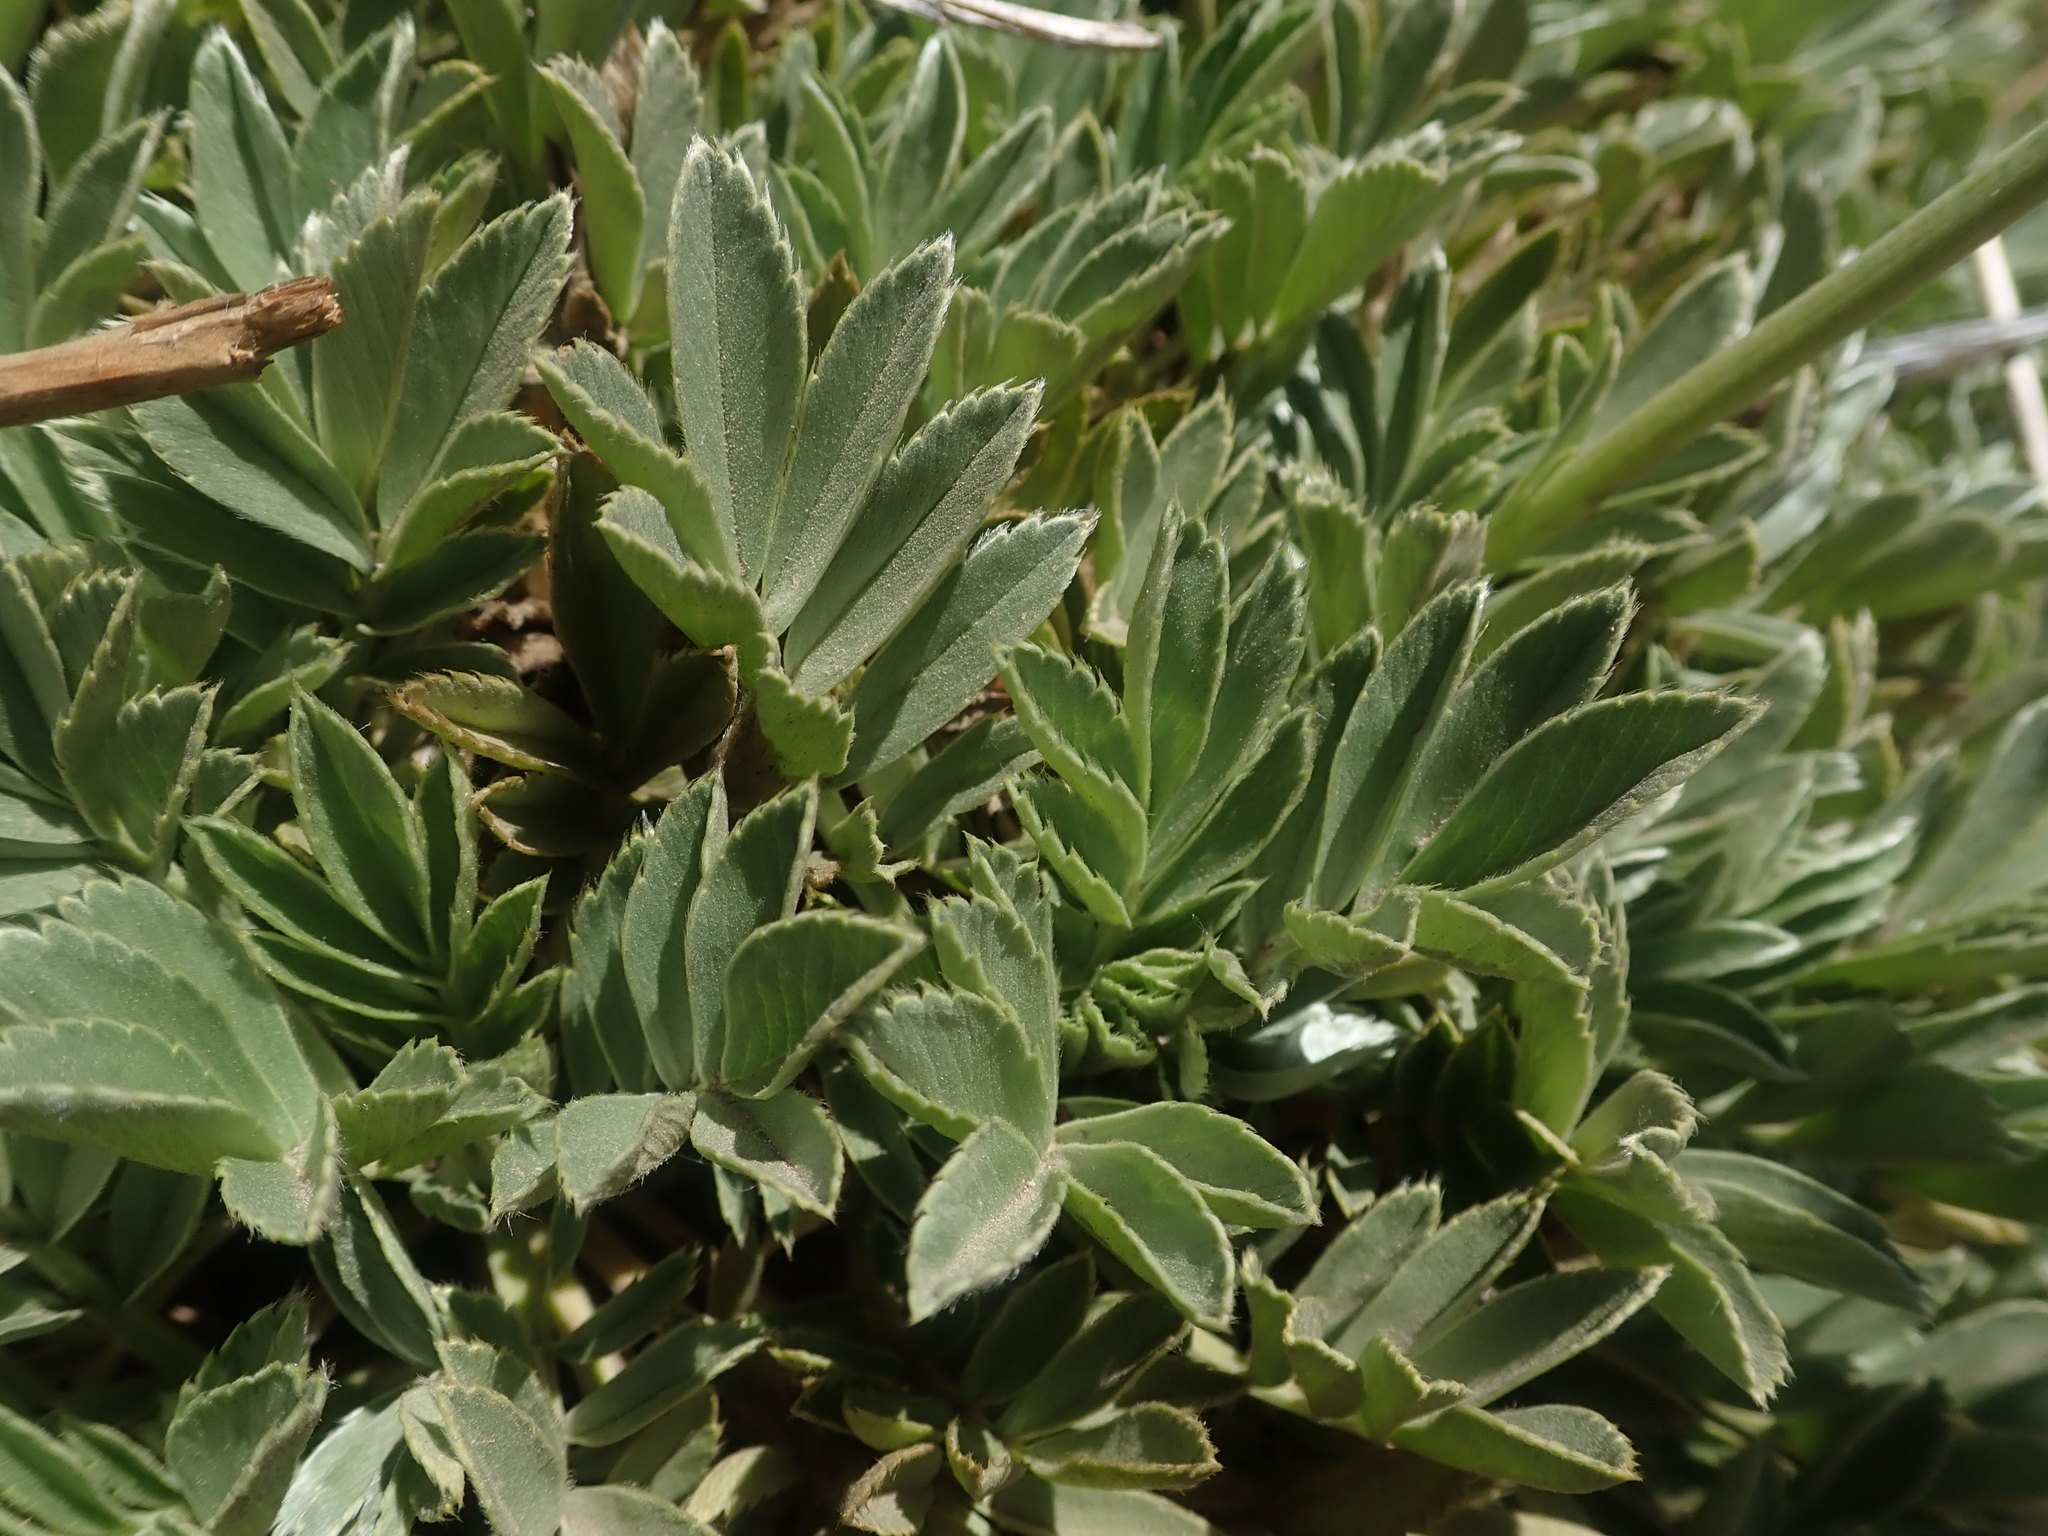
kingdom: Plantae
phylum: Tracheophyta
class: Magnoliopsida
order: Rosales
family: Rosaceae
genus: Acaena
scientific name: Acaena splendens
